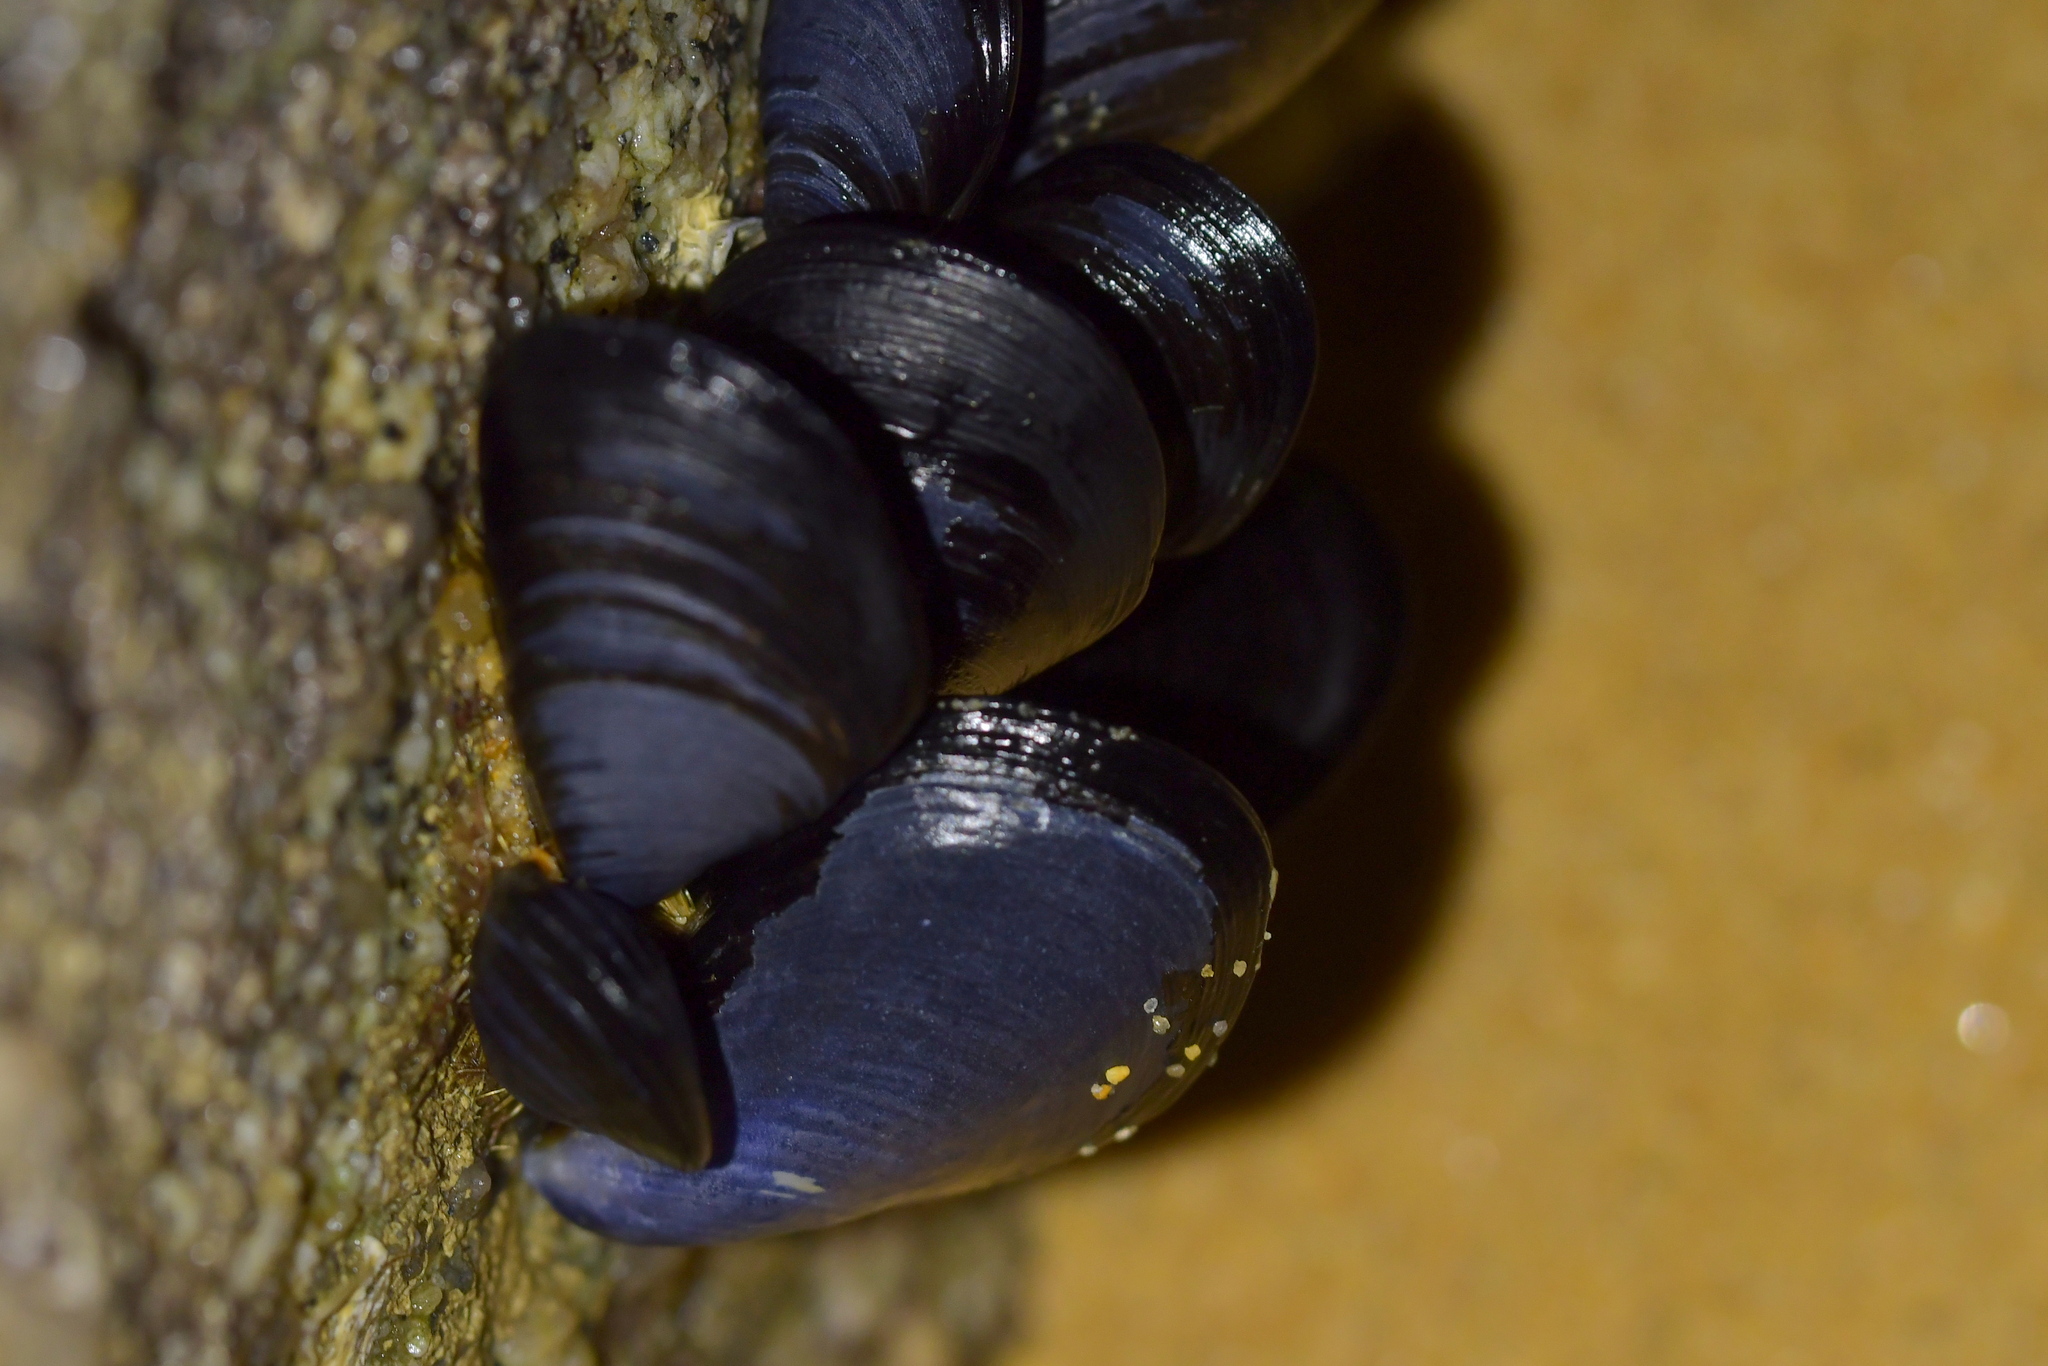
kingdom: Animalia
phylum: Mollusca
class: Bivalvia
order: Mytilida
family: Mytilidae
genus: Mytilus
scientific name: Mytilus planulatus
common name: Australian mussel
